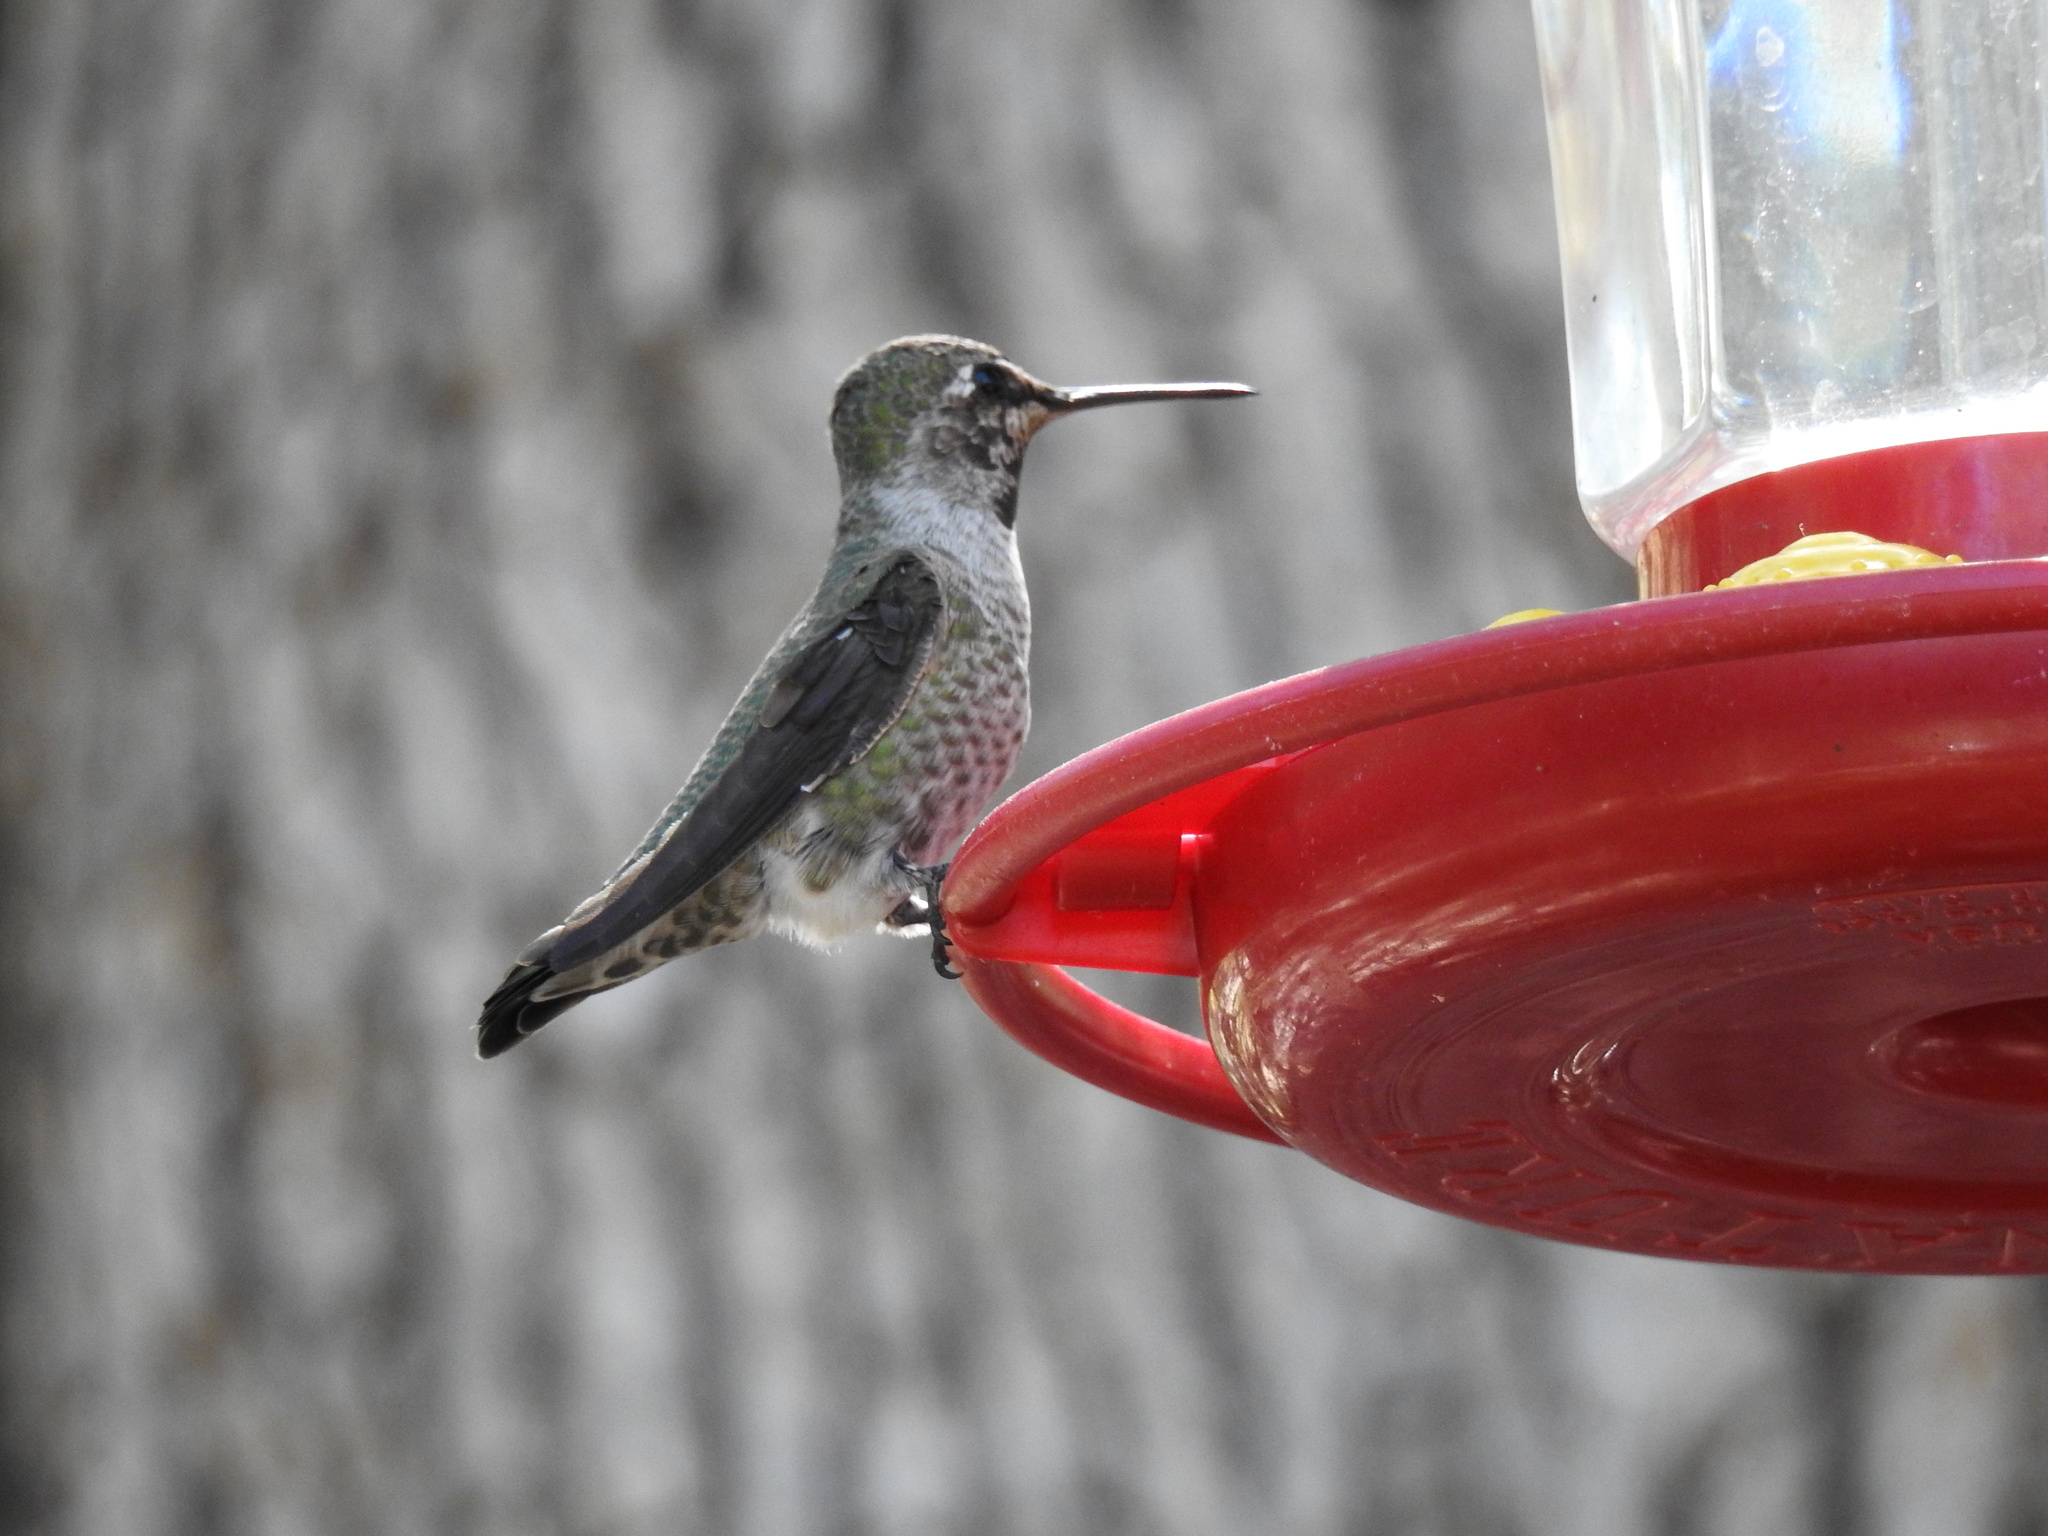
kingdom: Animalia
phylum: Chordata
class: Aves
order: Apodiformes
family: Trochilidae
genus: Calypte
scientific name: Calypte anna
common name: Anna's hummingbird
